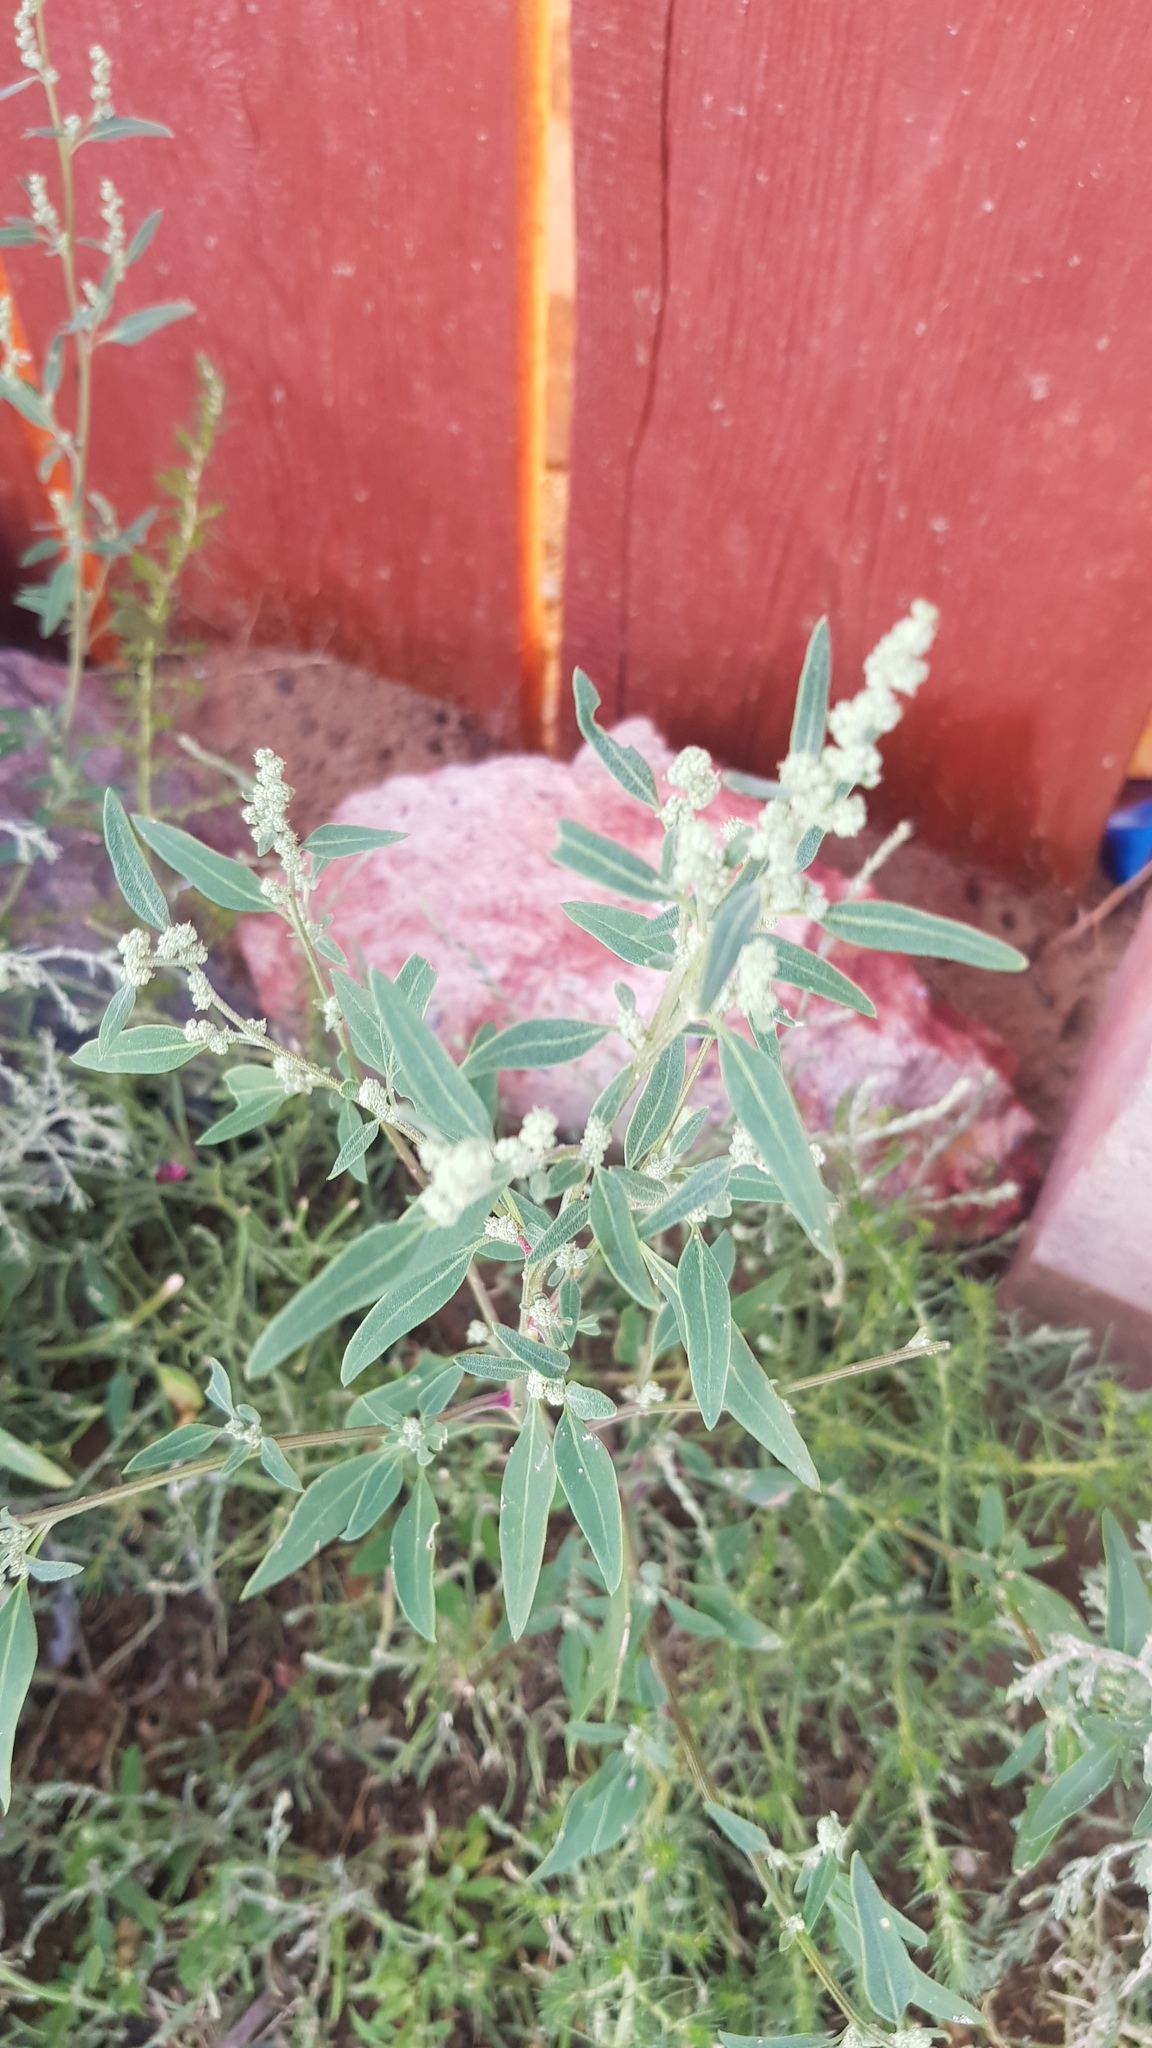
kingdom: Plantae
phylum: Tracheophyta
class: Magnoliopsida
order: Caryophyllales
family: Amaranthaceae
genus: Chenopodium
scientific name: Chenopodium album
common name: Fat-hen
